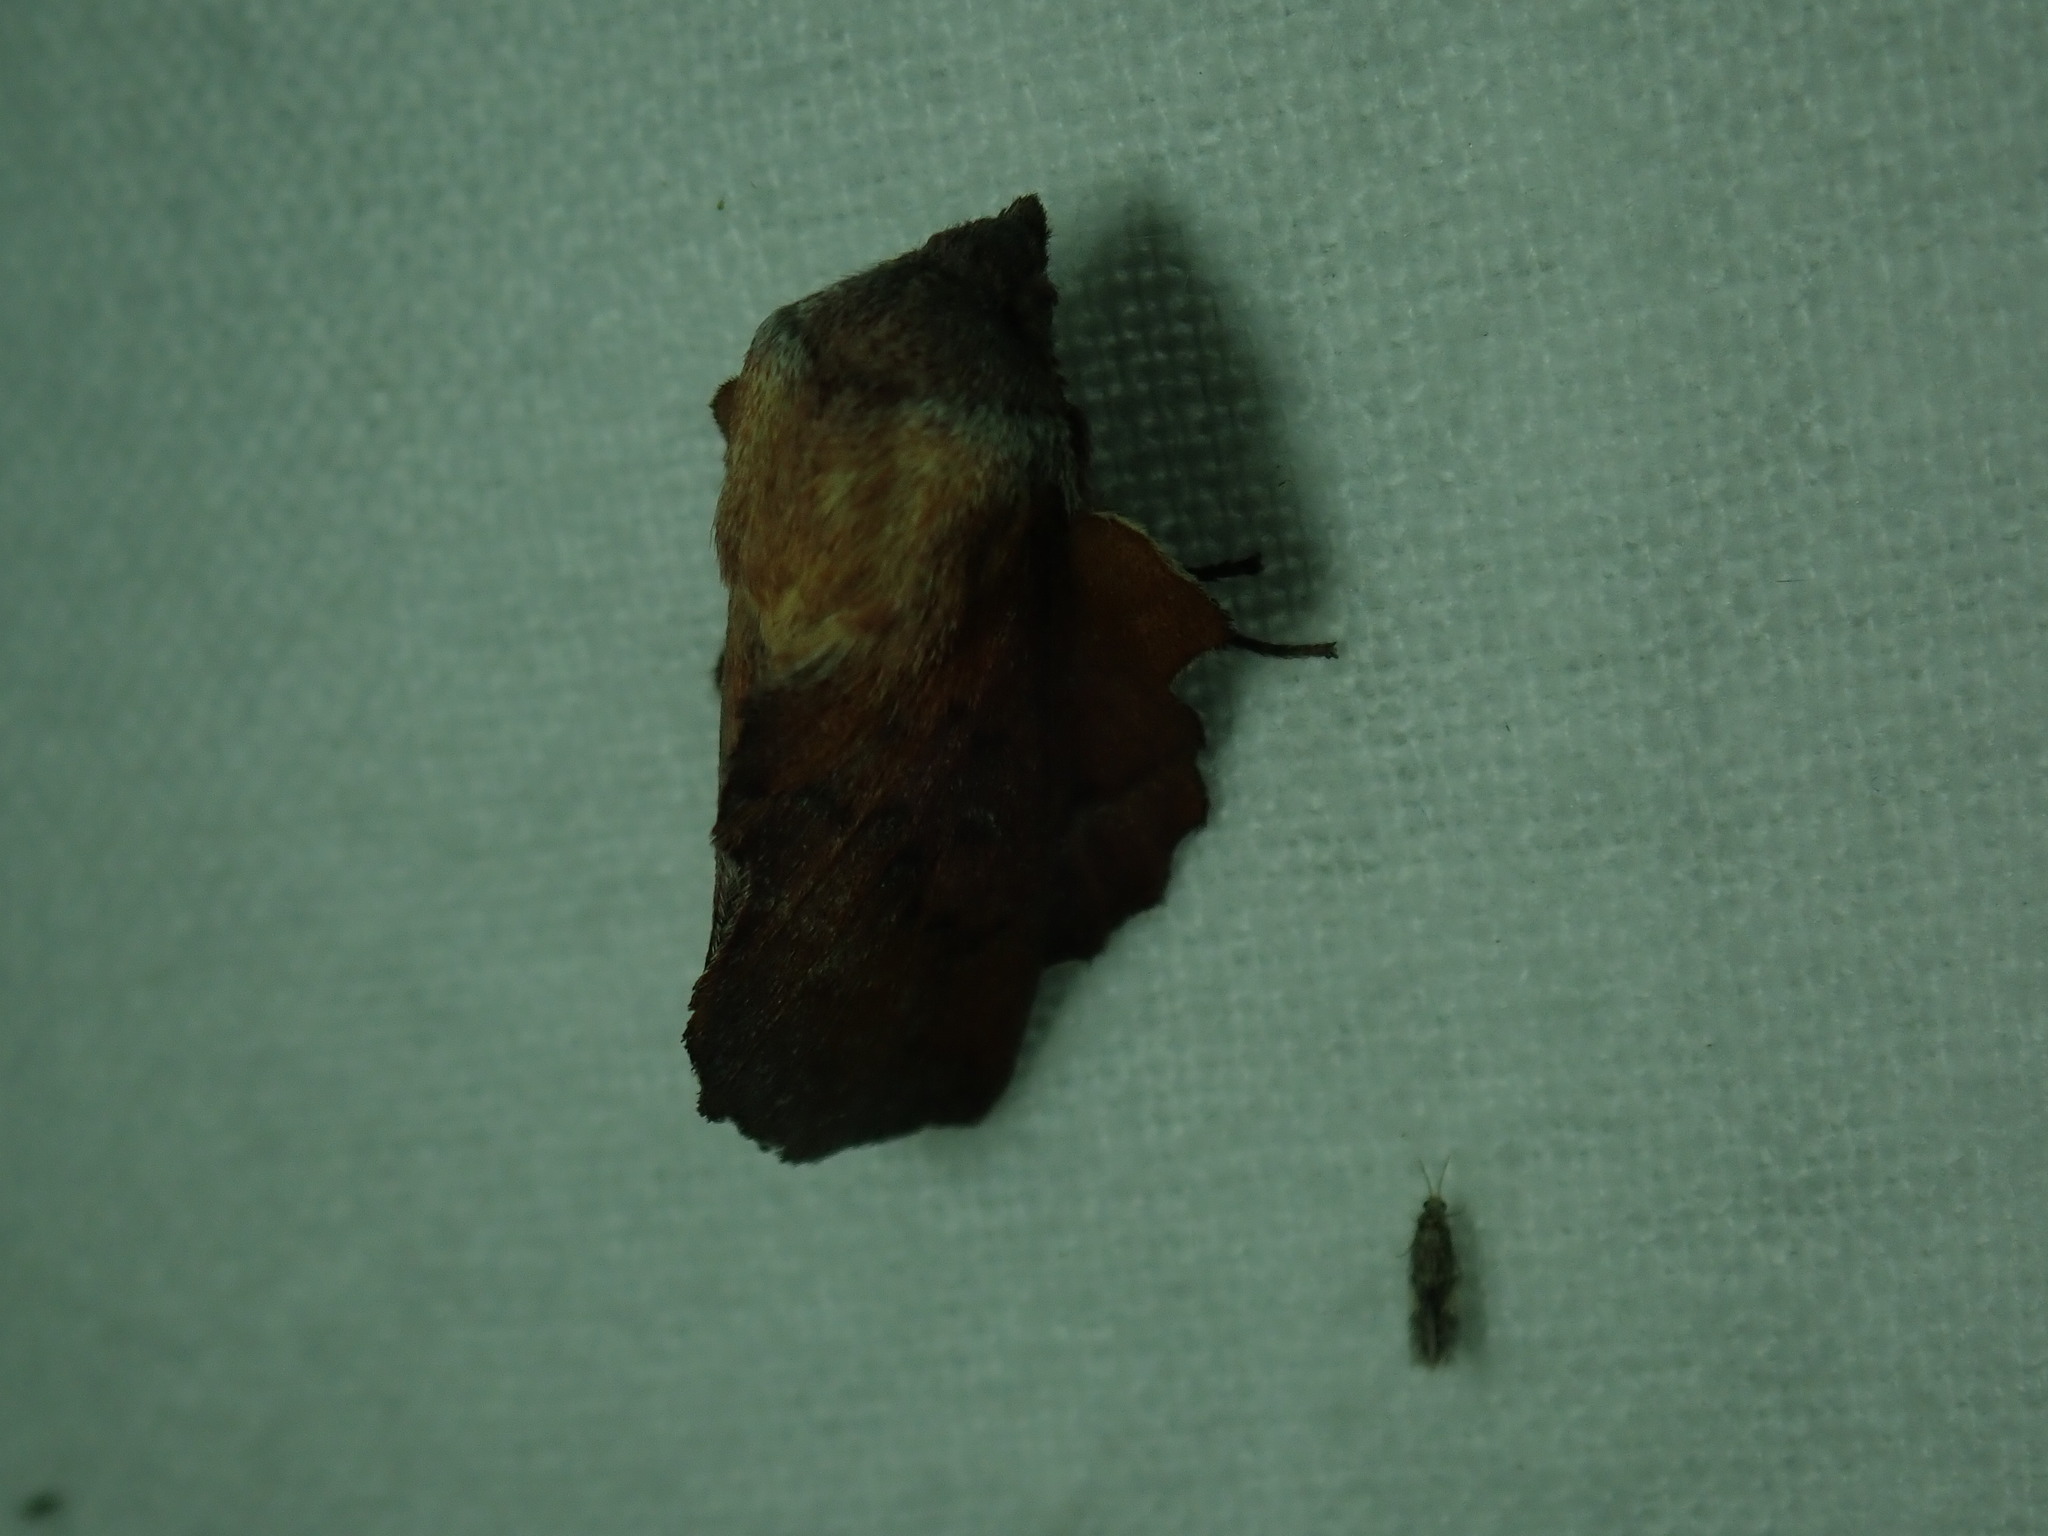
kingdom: Animalia
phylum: Arthropoda
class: Insecta
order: Lepidoptera
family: Lasiocampidae
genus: Phyllodesma
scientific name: Phyllodesma americana
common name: American lappet moth
